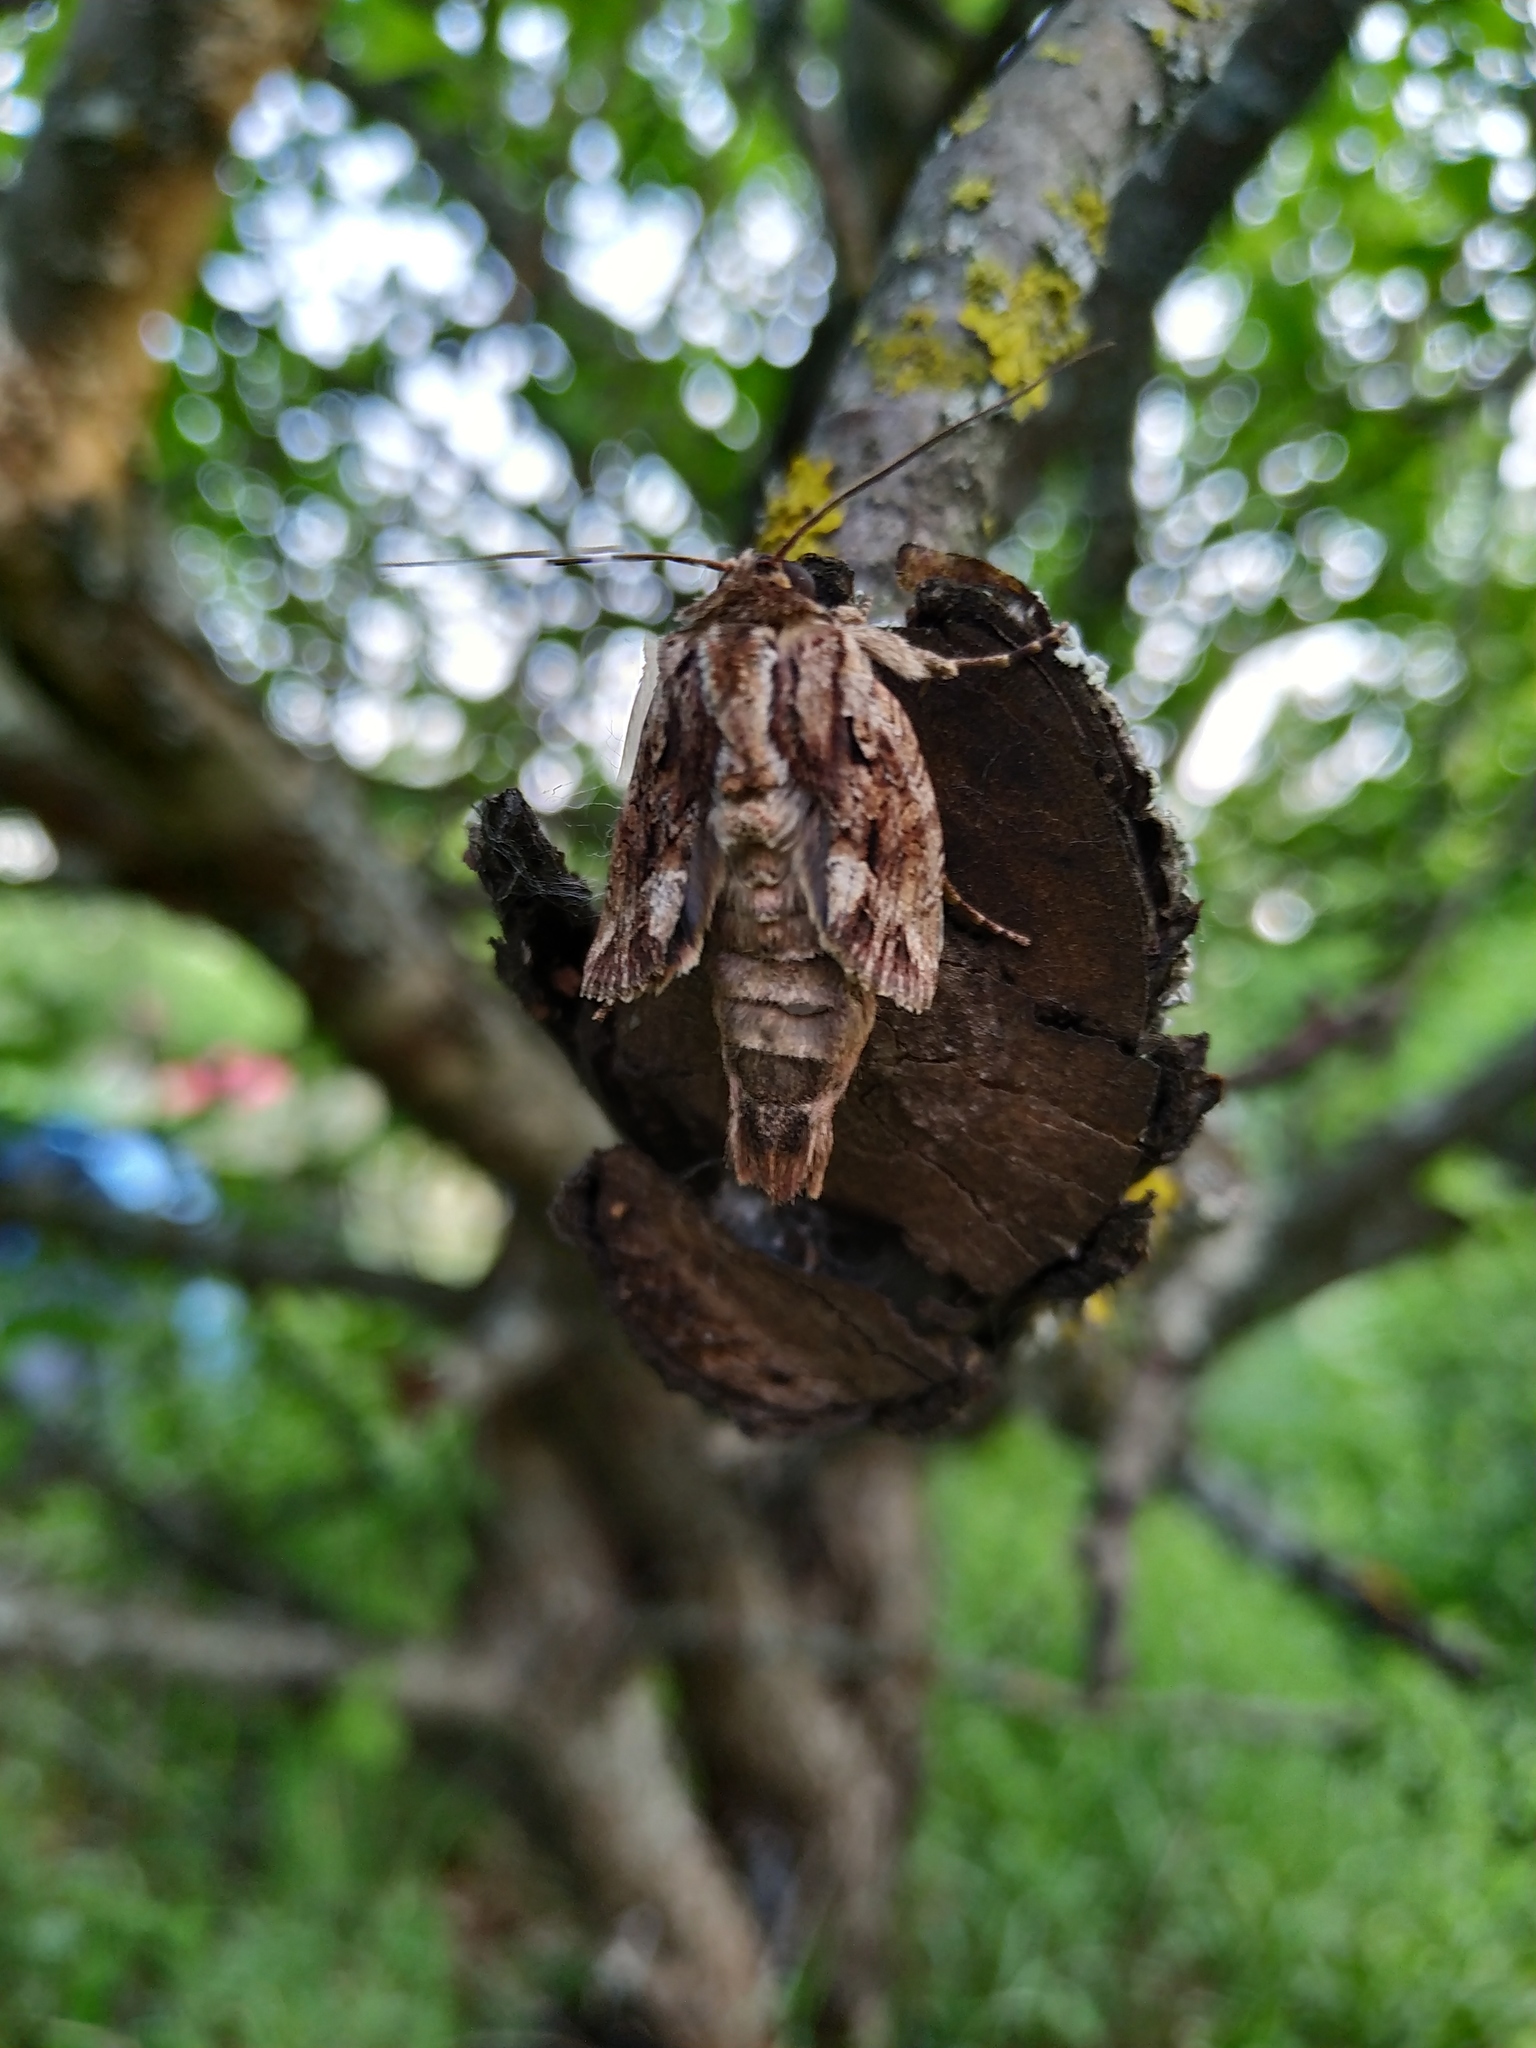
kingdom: Animalia
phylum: Arthropoda
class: Insecta
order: Lepidoptera
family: Noctuidae
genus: Apamea
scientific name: Apamea monoglypha
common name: Dark arches
